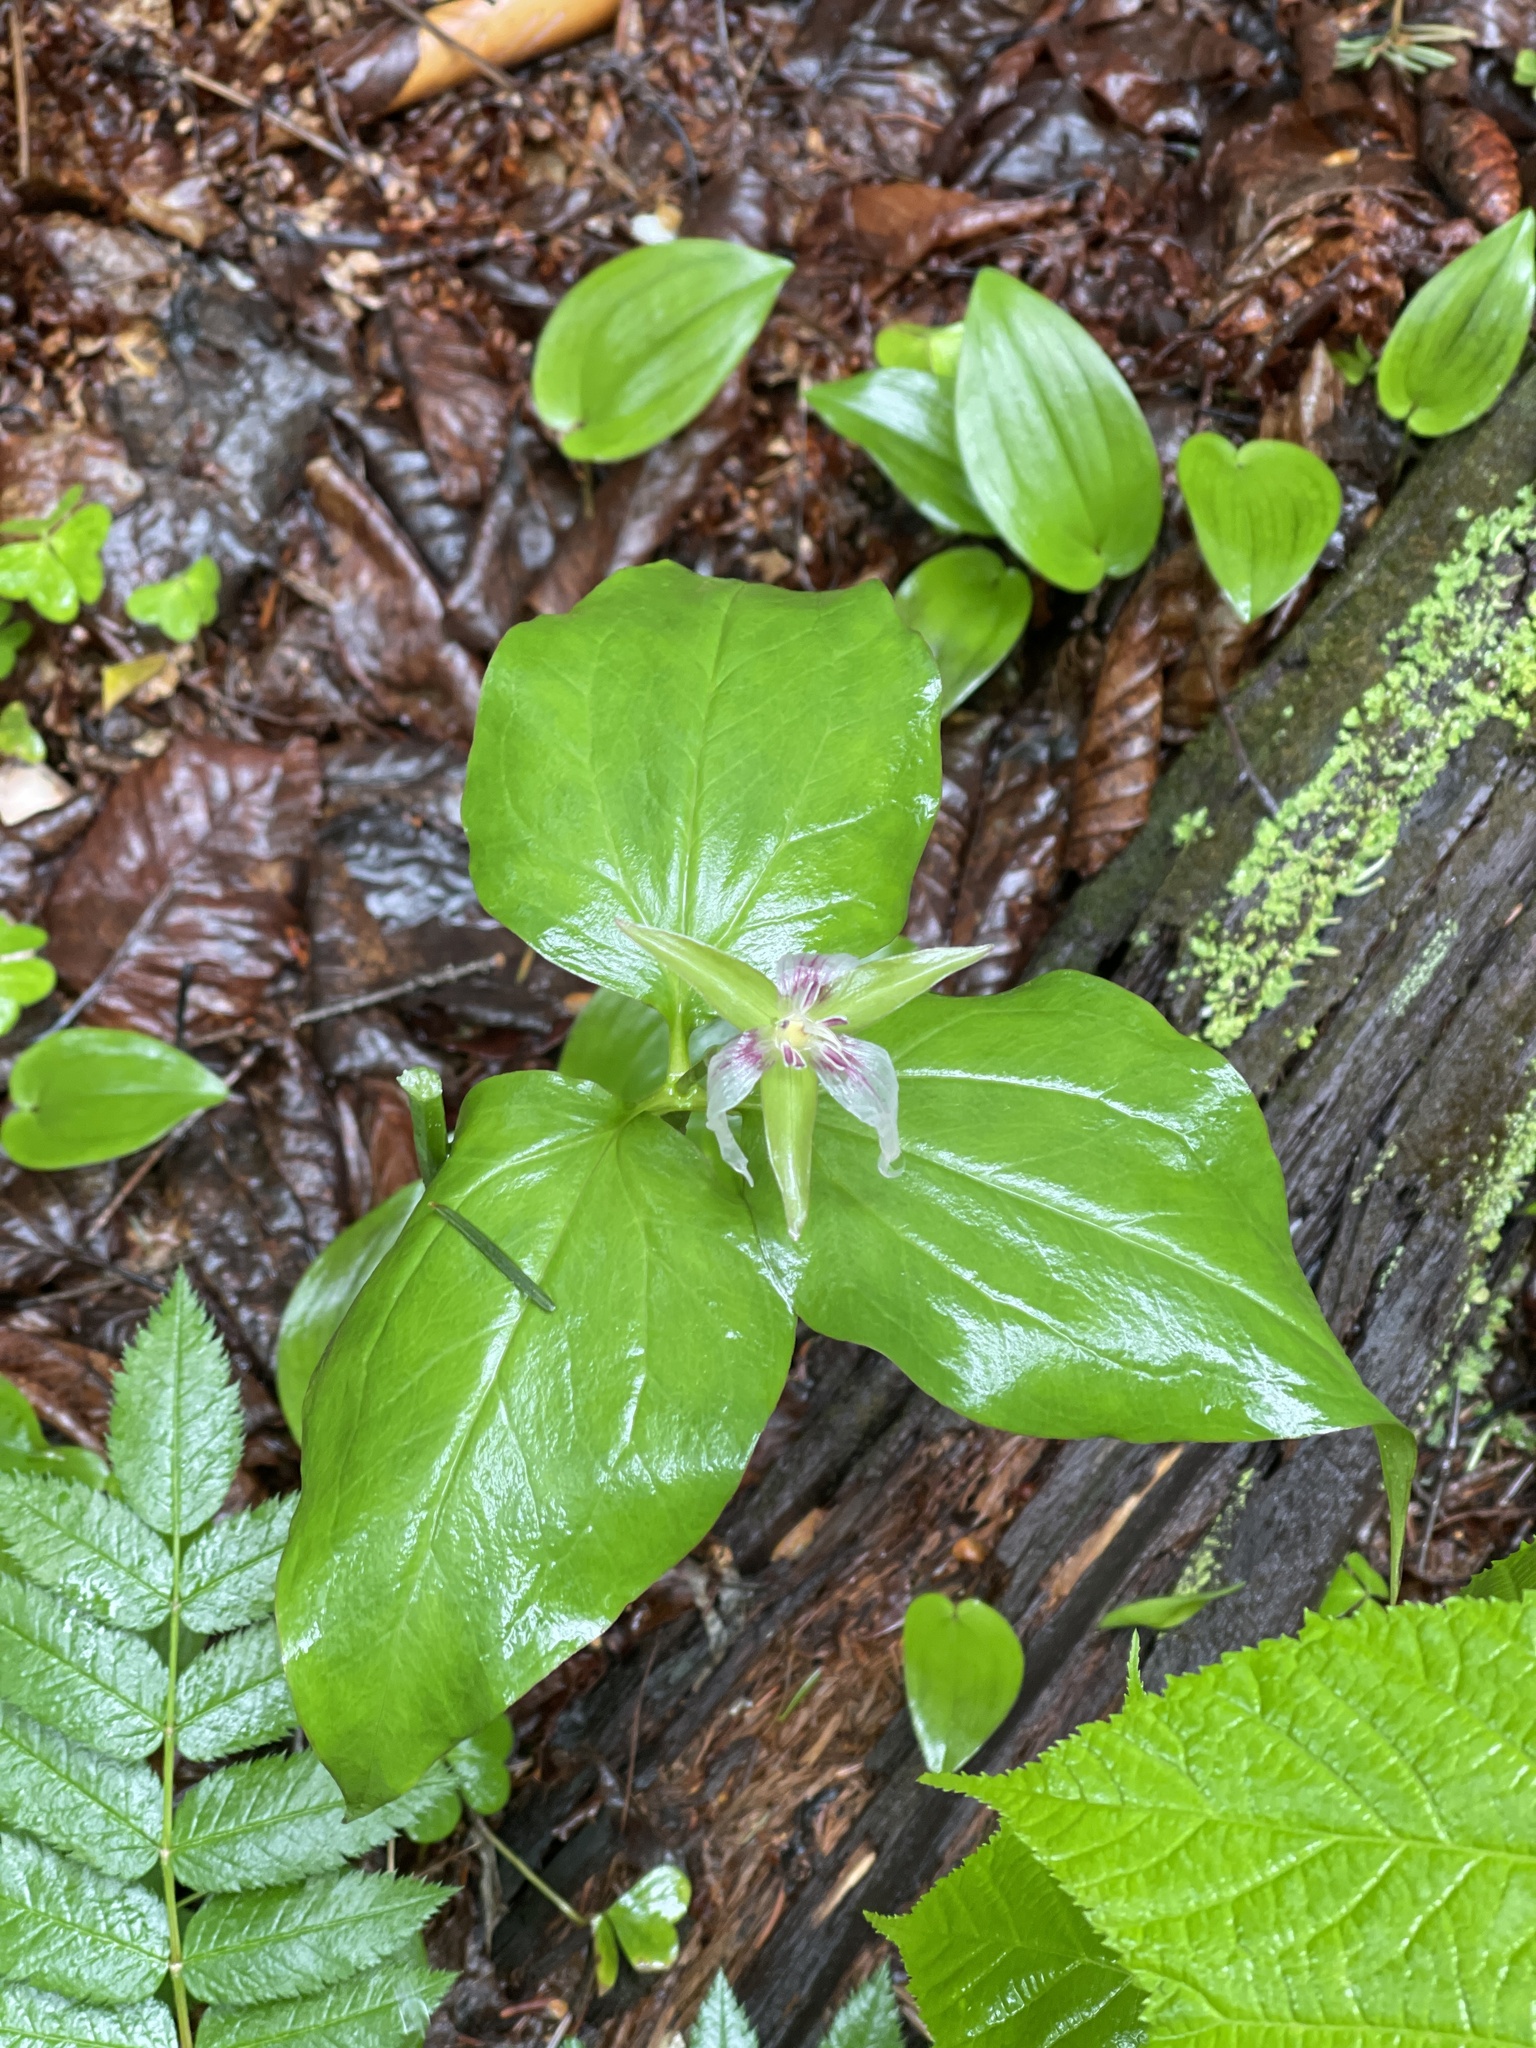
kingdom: Plantae
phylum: Tracheophyta
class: Liliopsida
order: Liliales
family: Melanthiaceae
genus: Trillium
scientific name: Trillium undulatum
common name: Paint trillium
